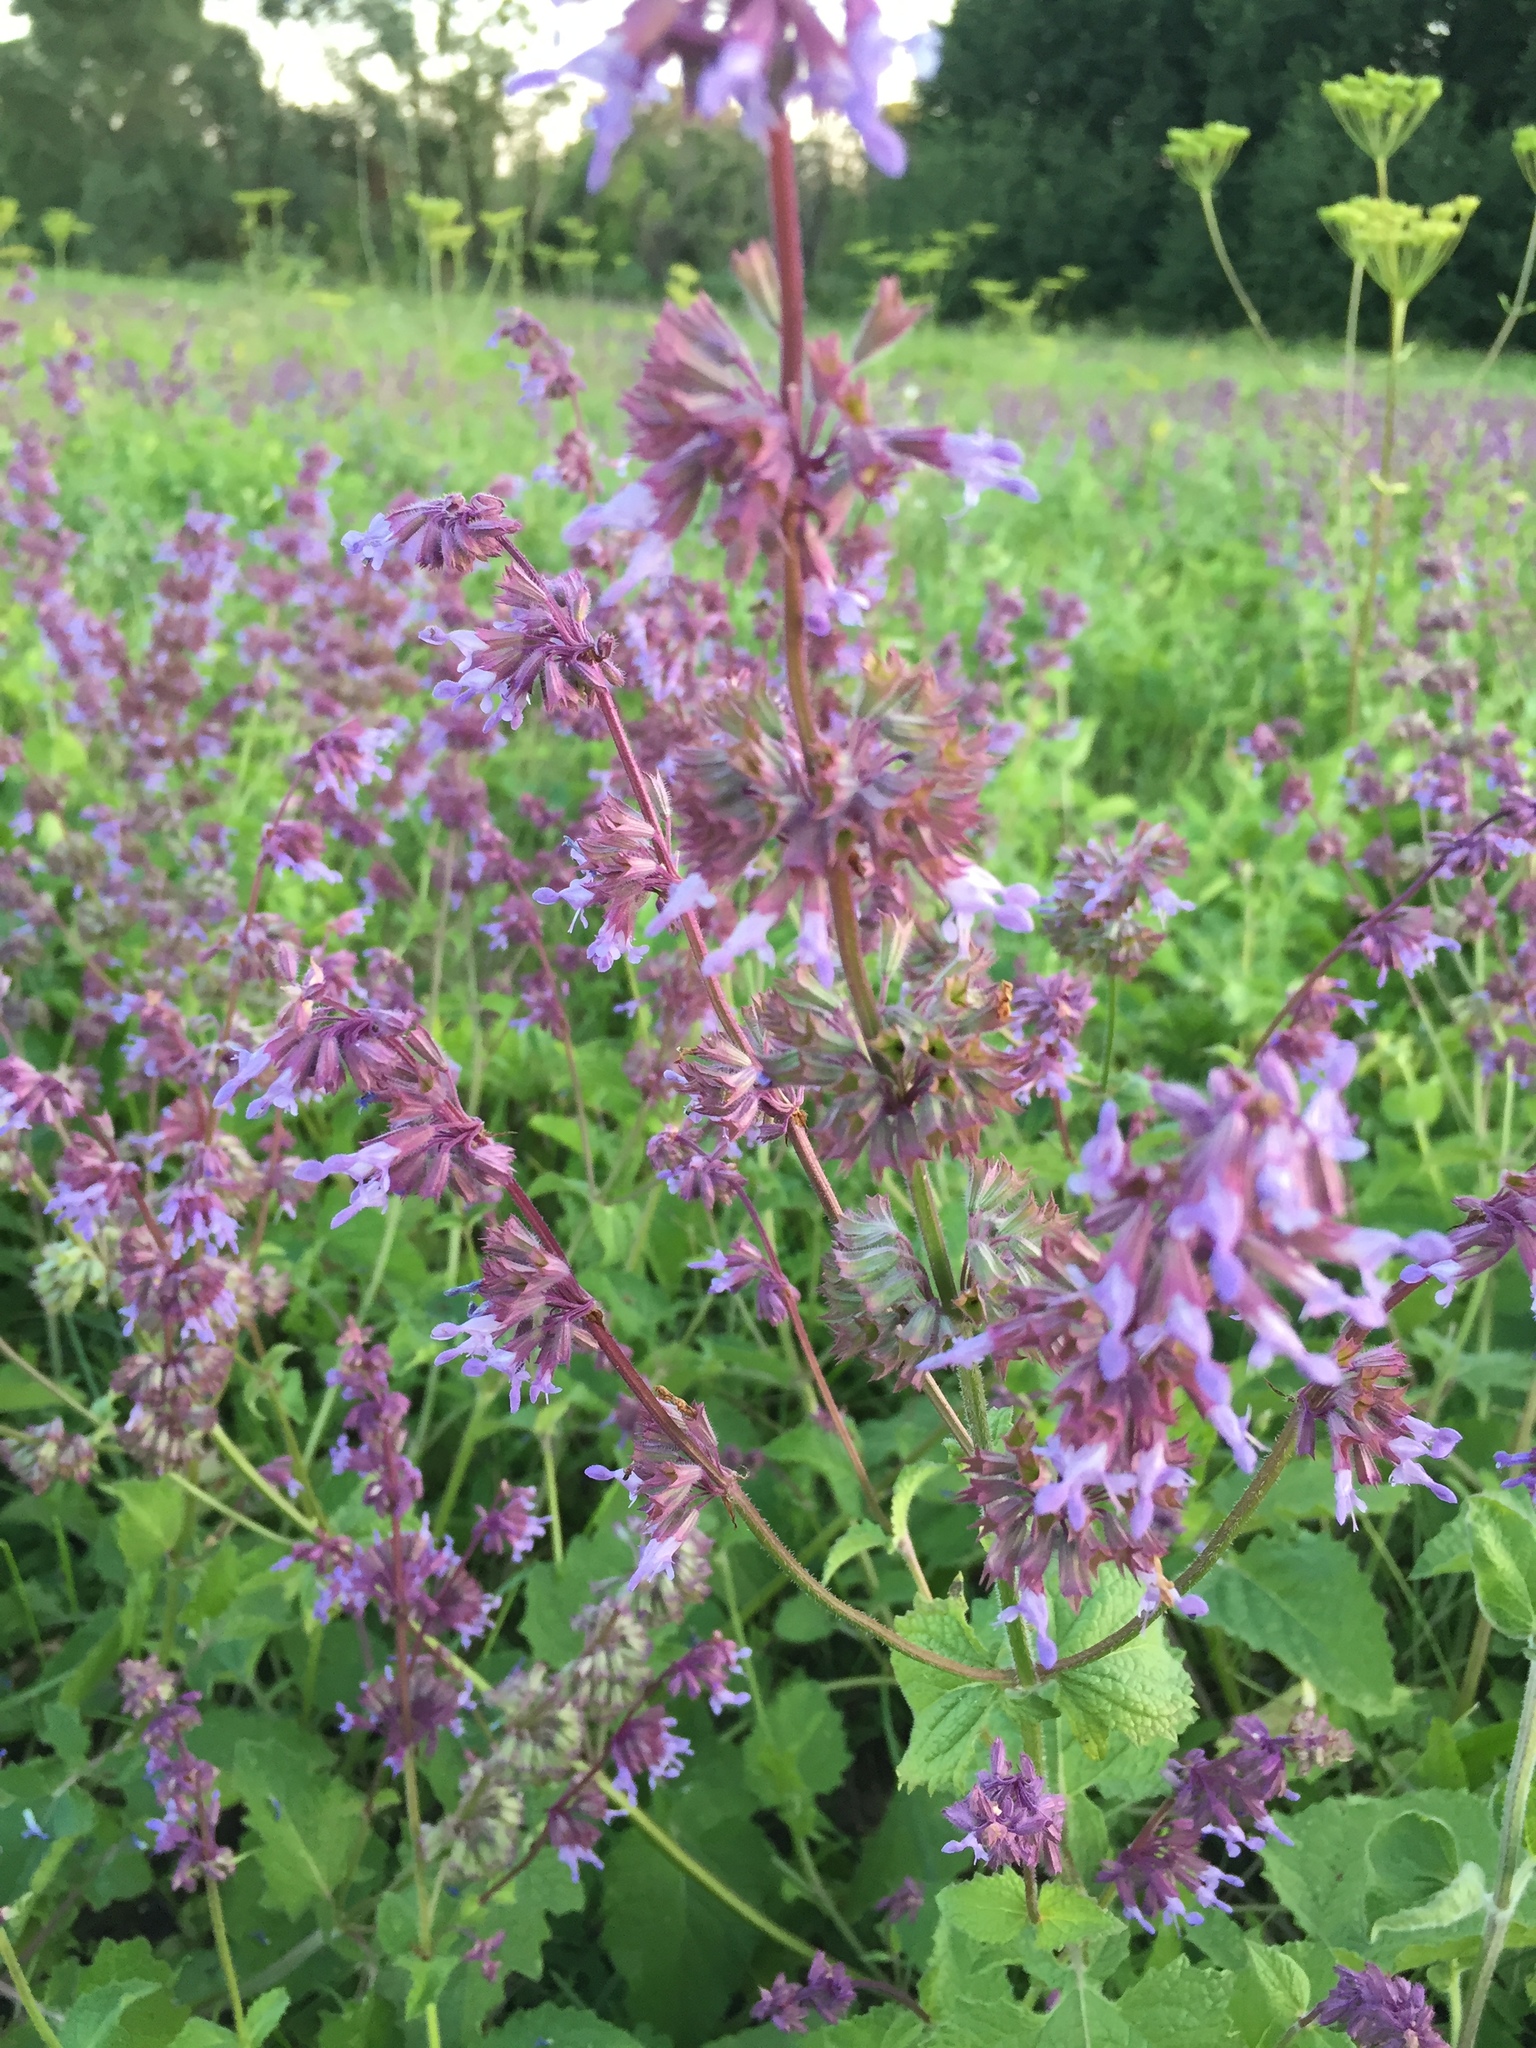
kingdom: Plantae
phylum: Tracheophyta
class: Magnoliopsida
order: Lamiales
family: Lamiaceae
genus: Salvia
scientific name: Salvia verticillata
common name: Whorled clary
